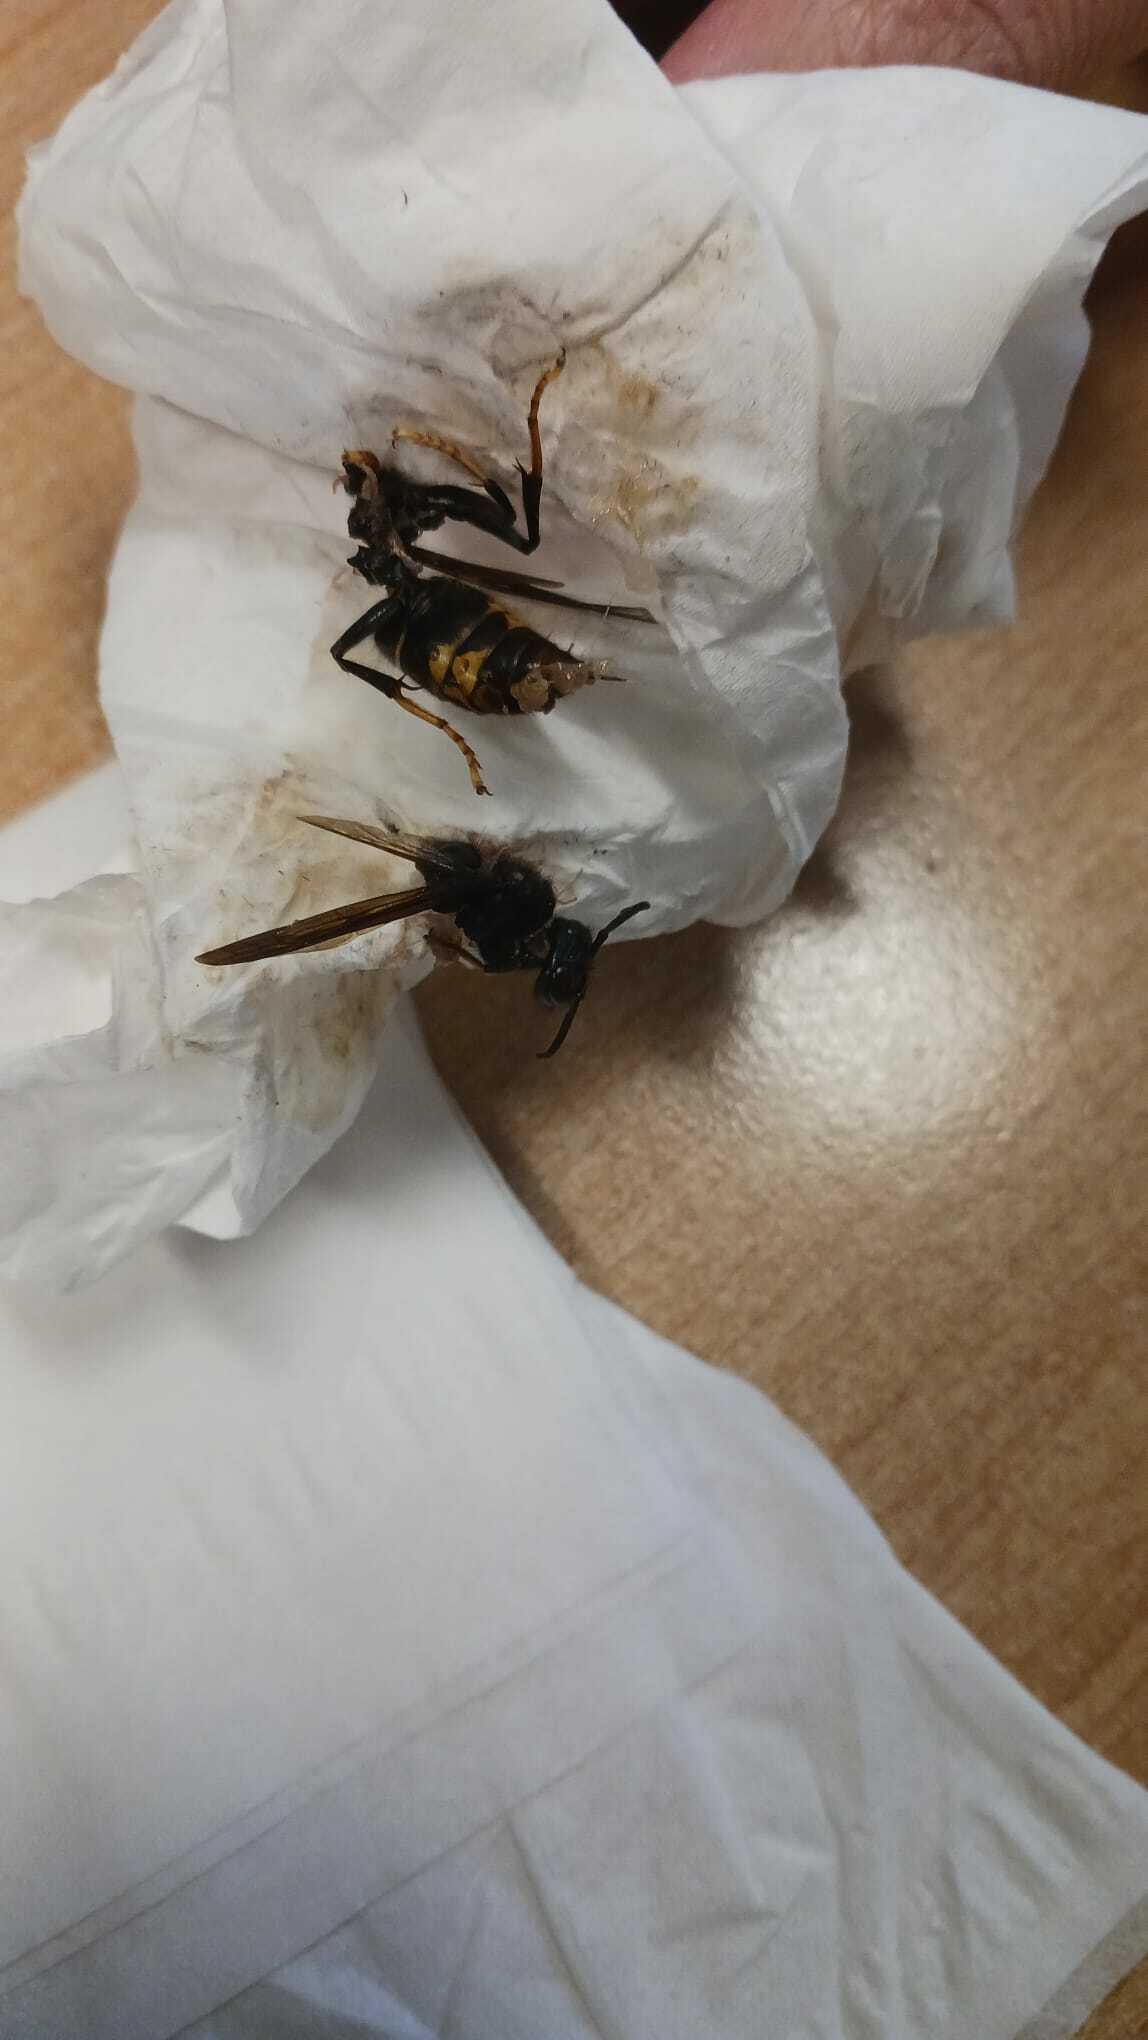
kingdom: Animalia
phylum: Arthropoda
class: Insecta
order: Hymenoptera
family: Vespidae
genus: Vespa
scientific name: Vespa velutina
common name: Asian hornet
